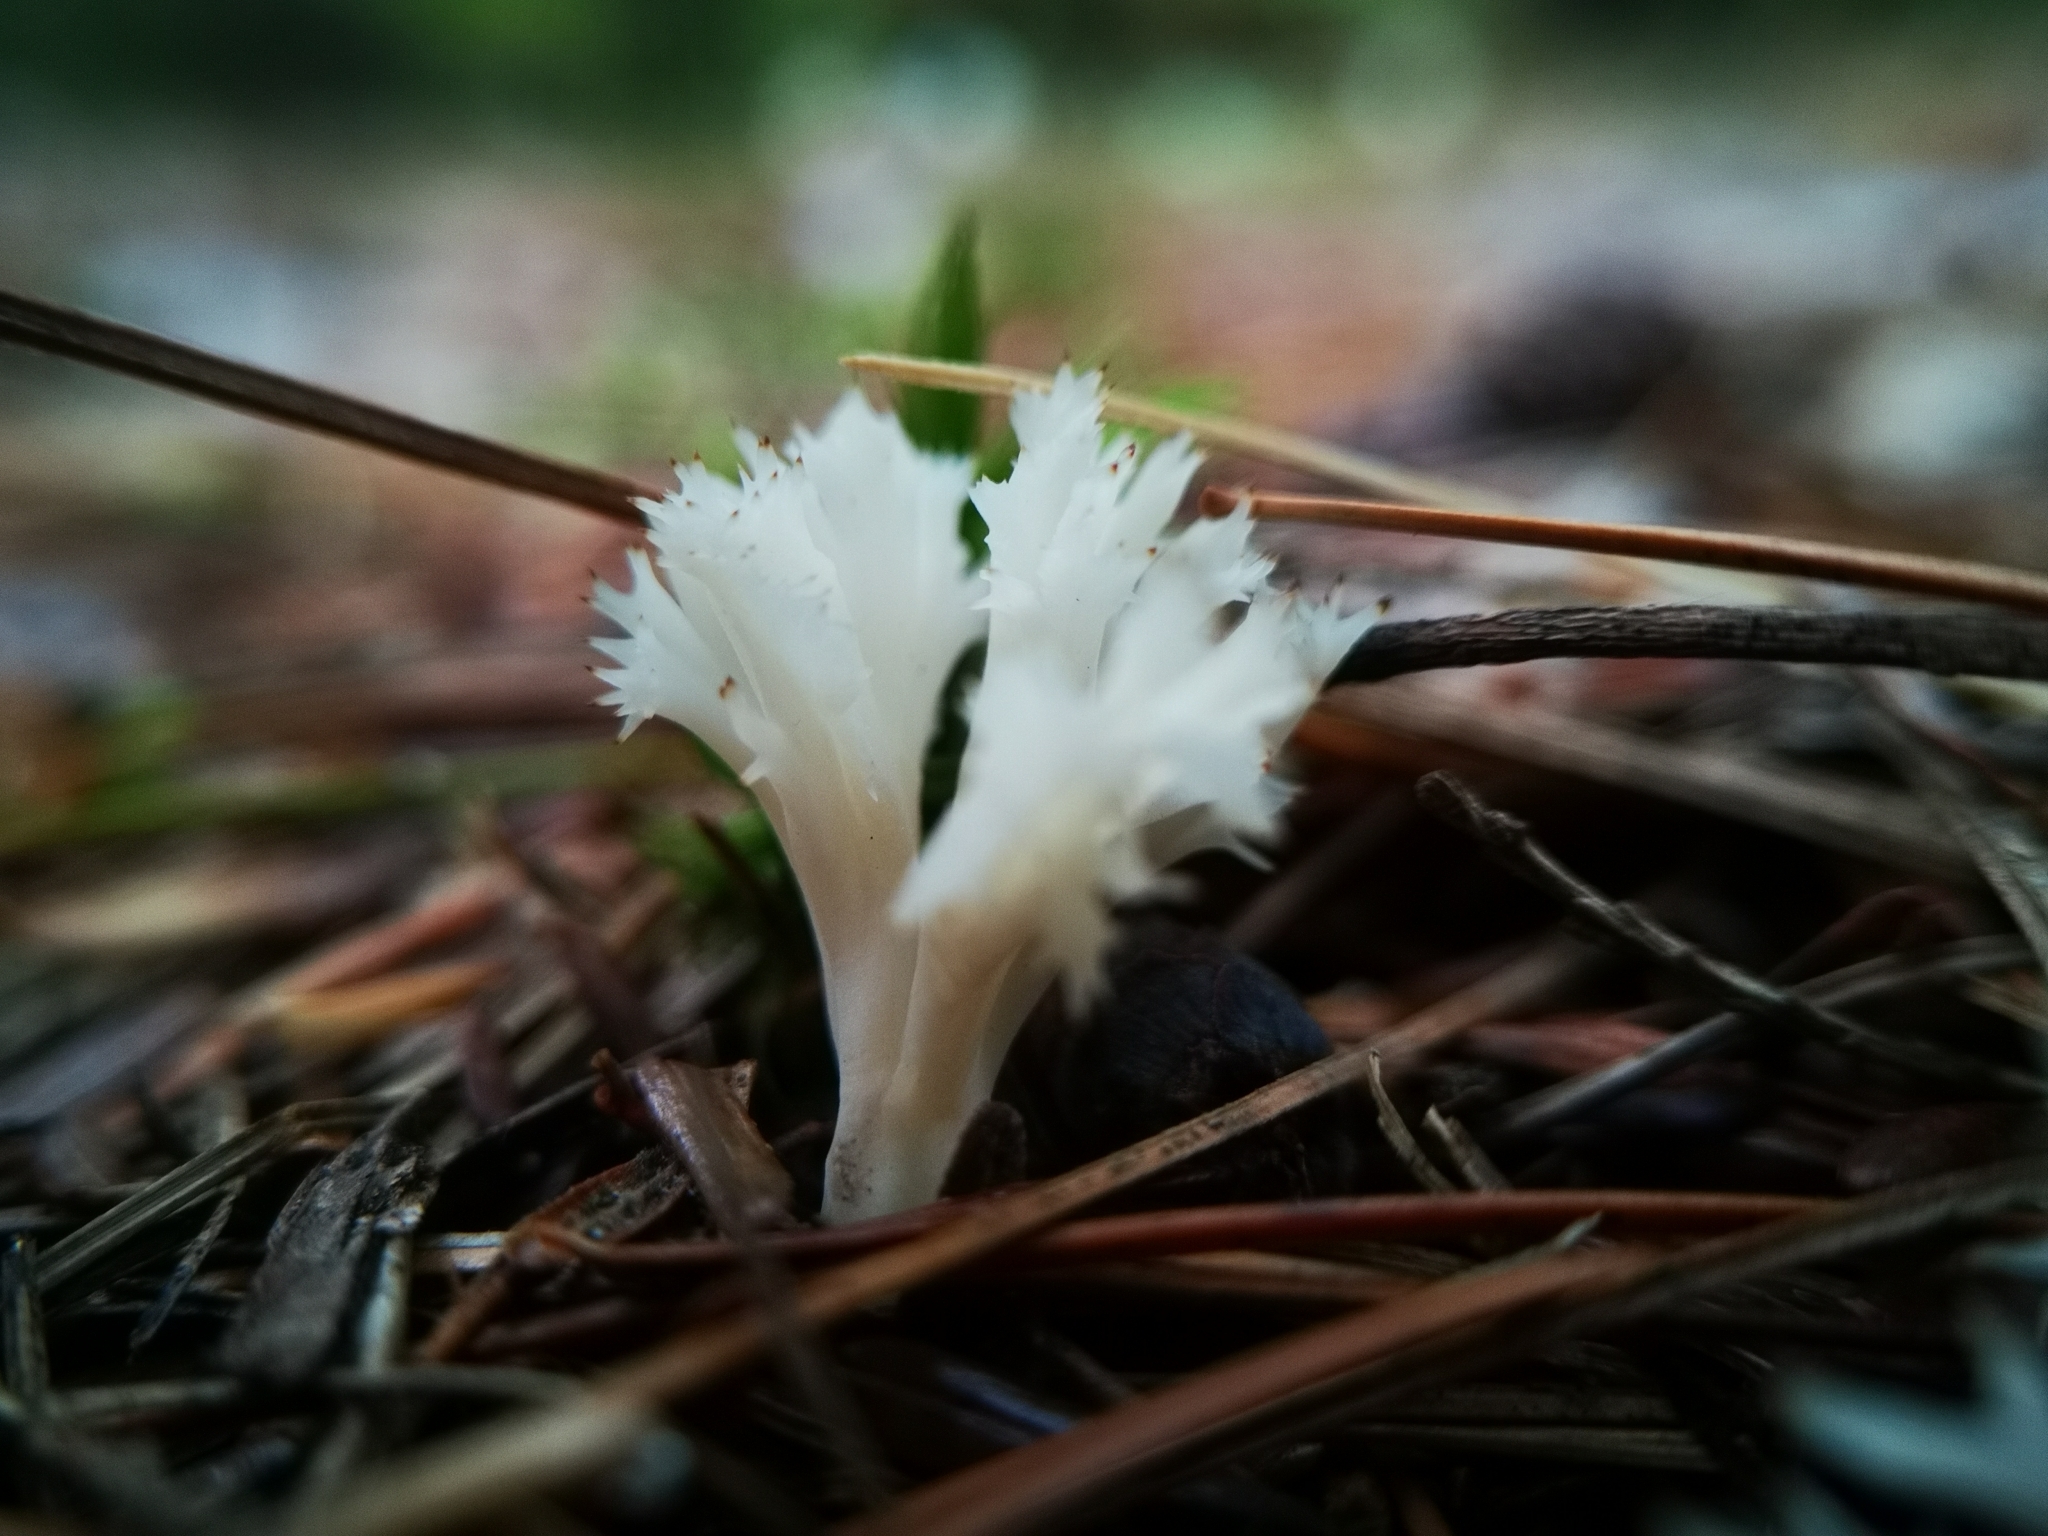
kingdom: Fungi
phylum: Basidiomycota
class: Agaricomycetes
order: Cantharellales
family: Hydnaceae
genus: Clavulina
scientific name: Clavulina coralloides
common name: Crested coral
